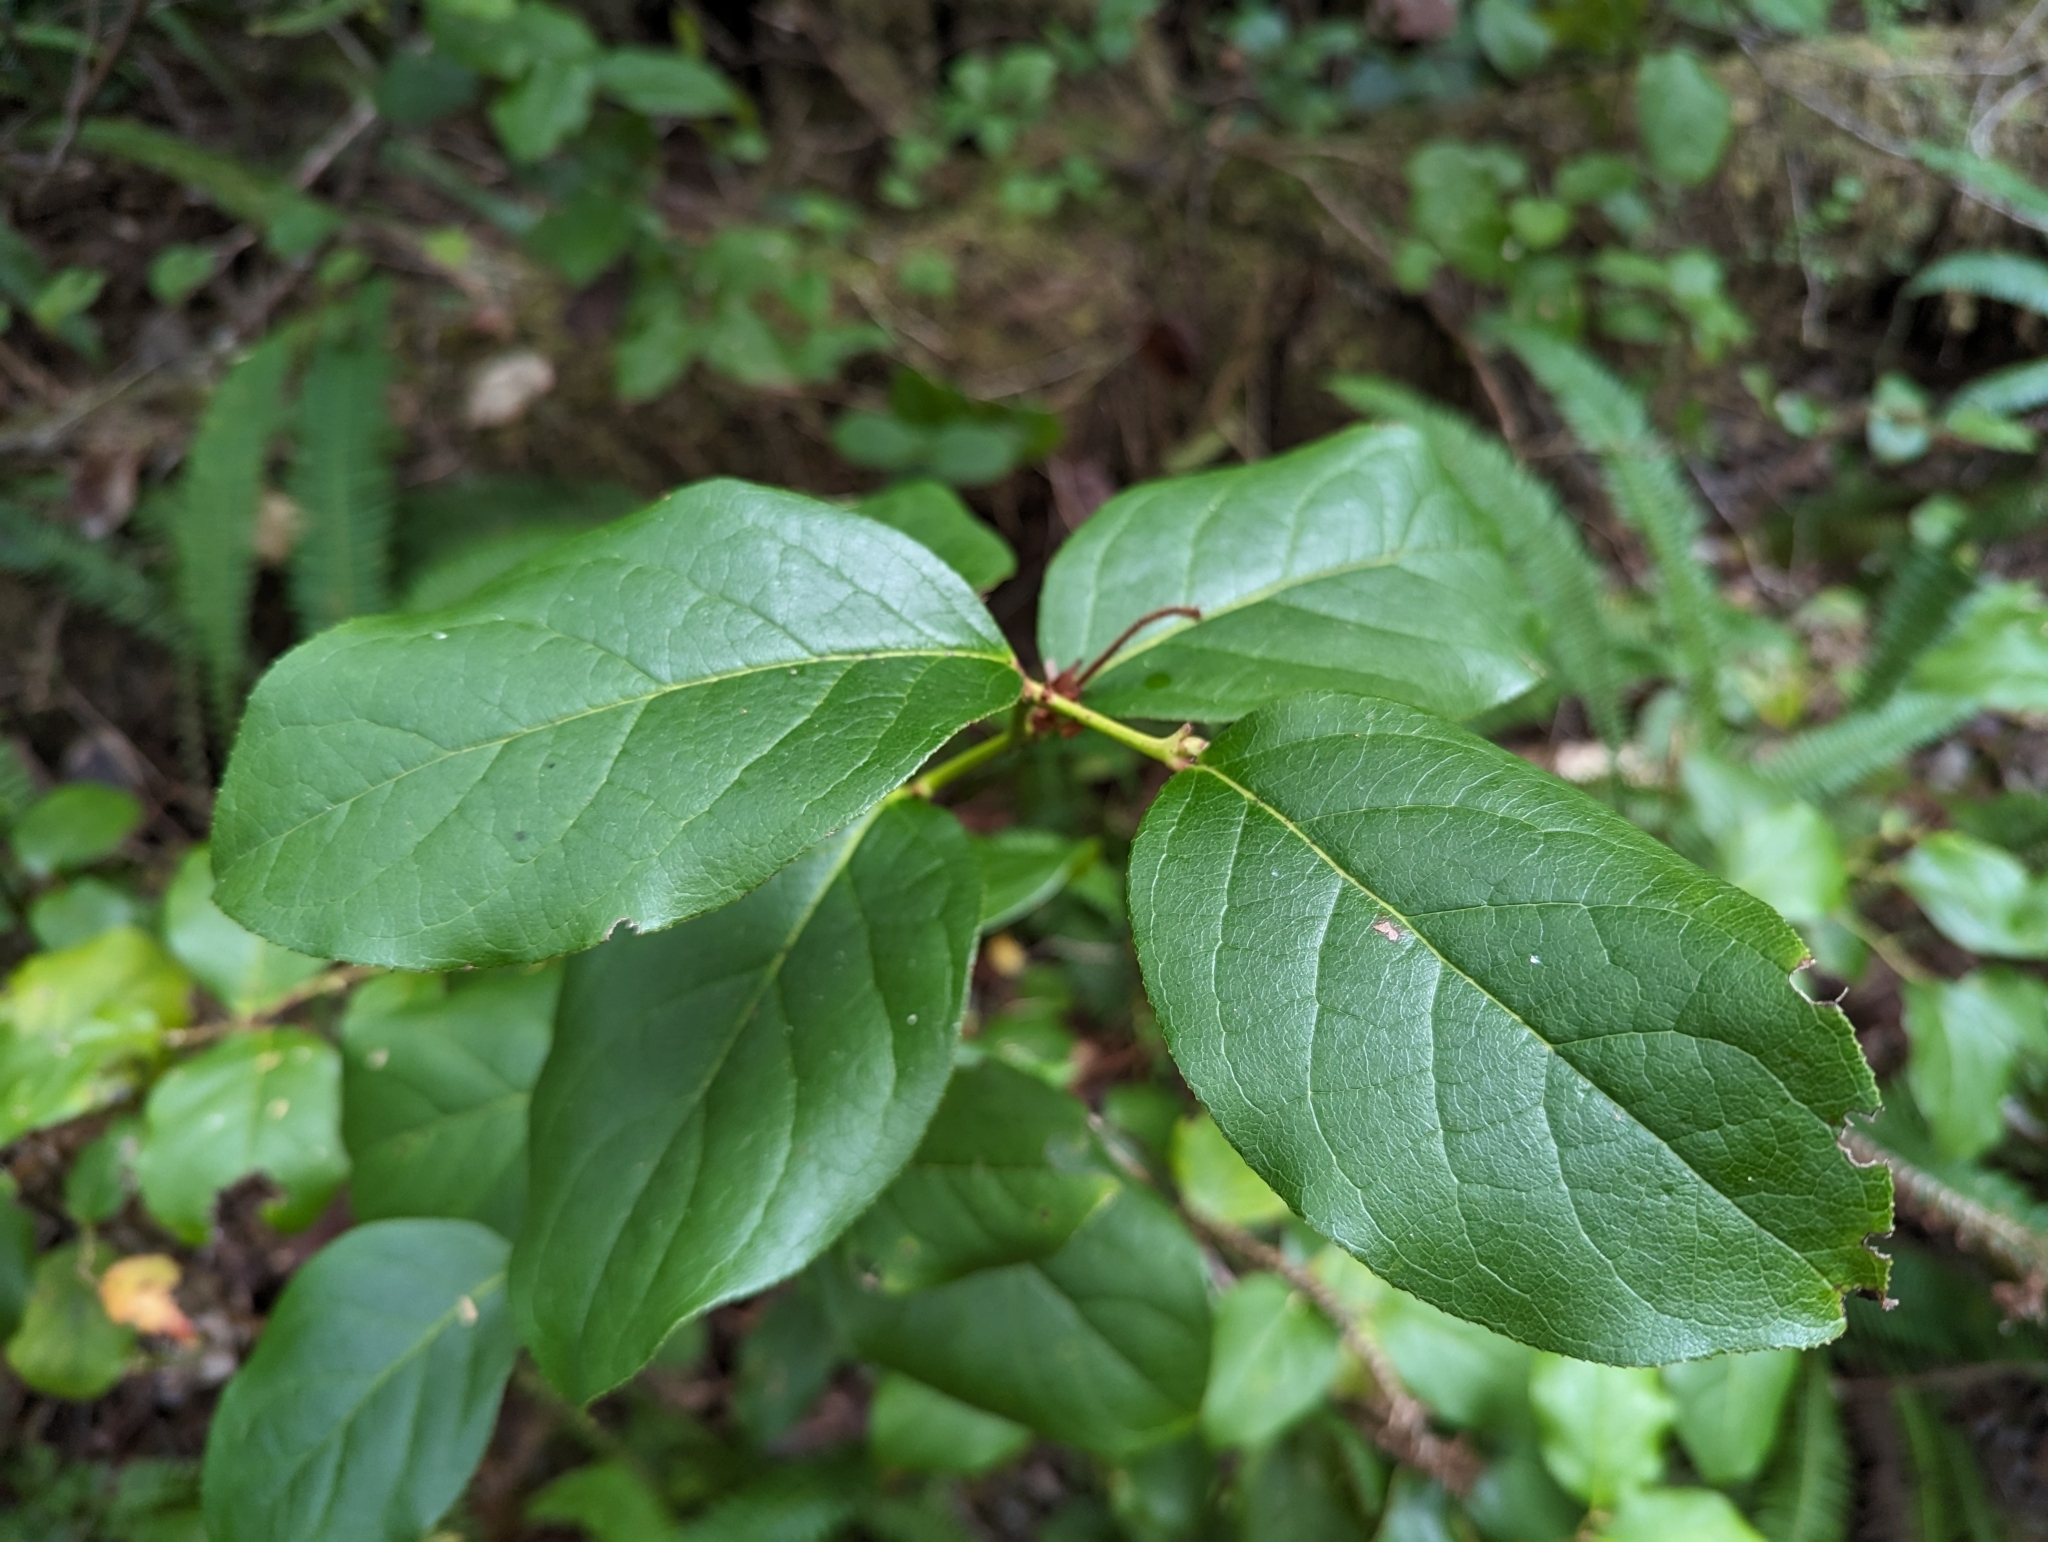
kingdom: Plantae
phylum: Tracheophyta
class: Magnoliopsida
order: Ericales
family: Ericaceae
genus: Gaultheria
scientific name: Gaultheria shallon
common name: Shallon
